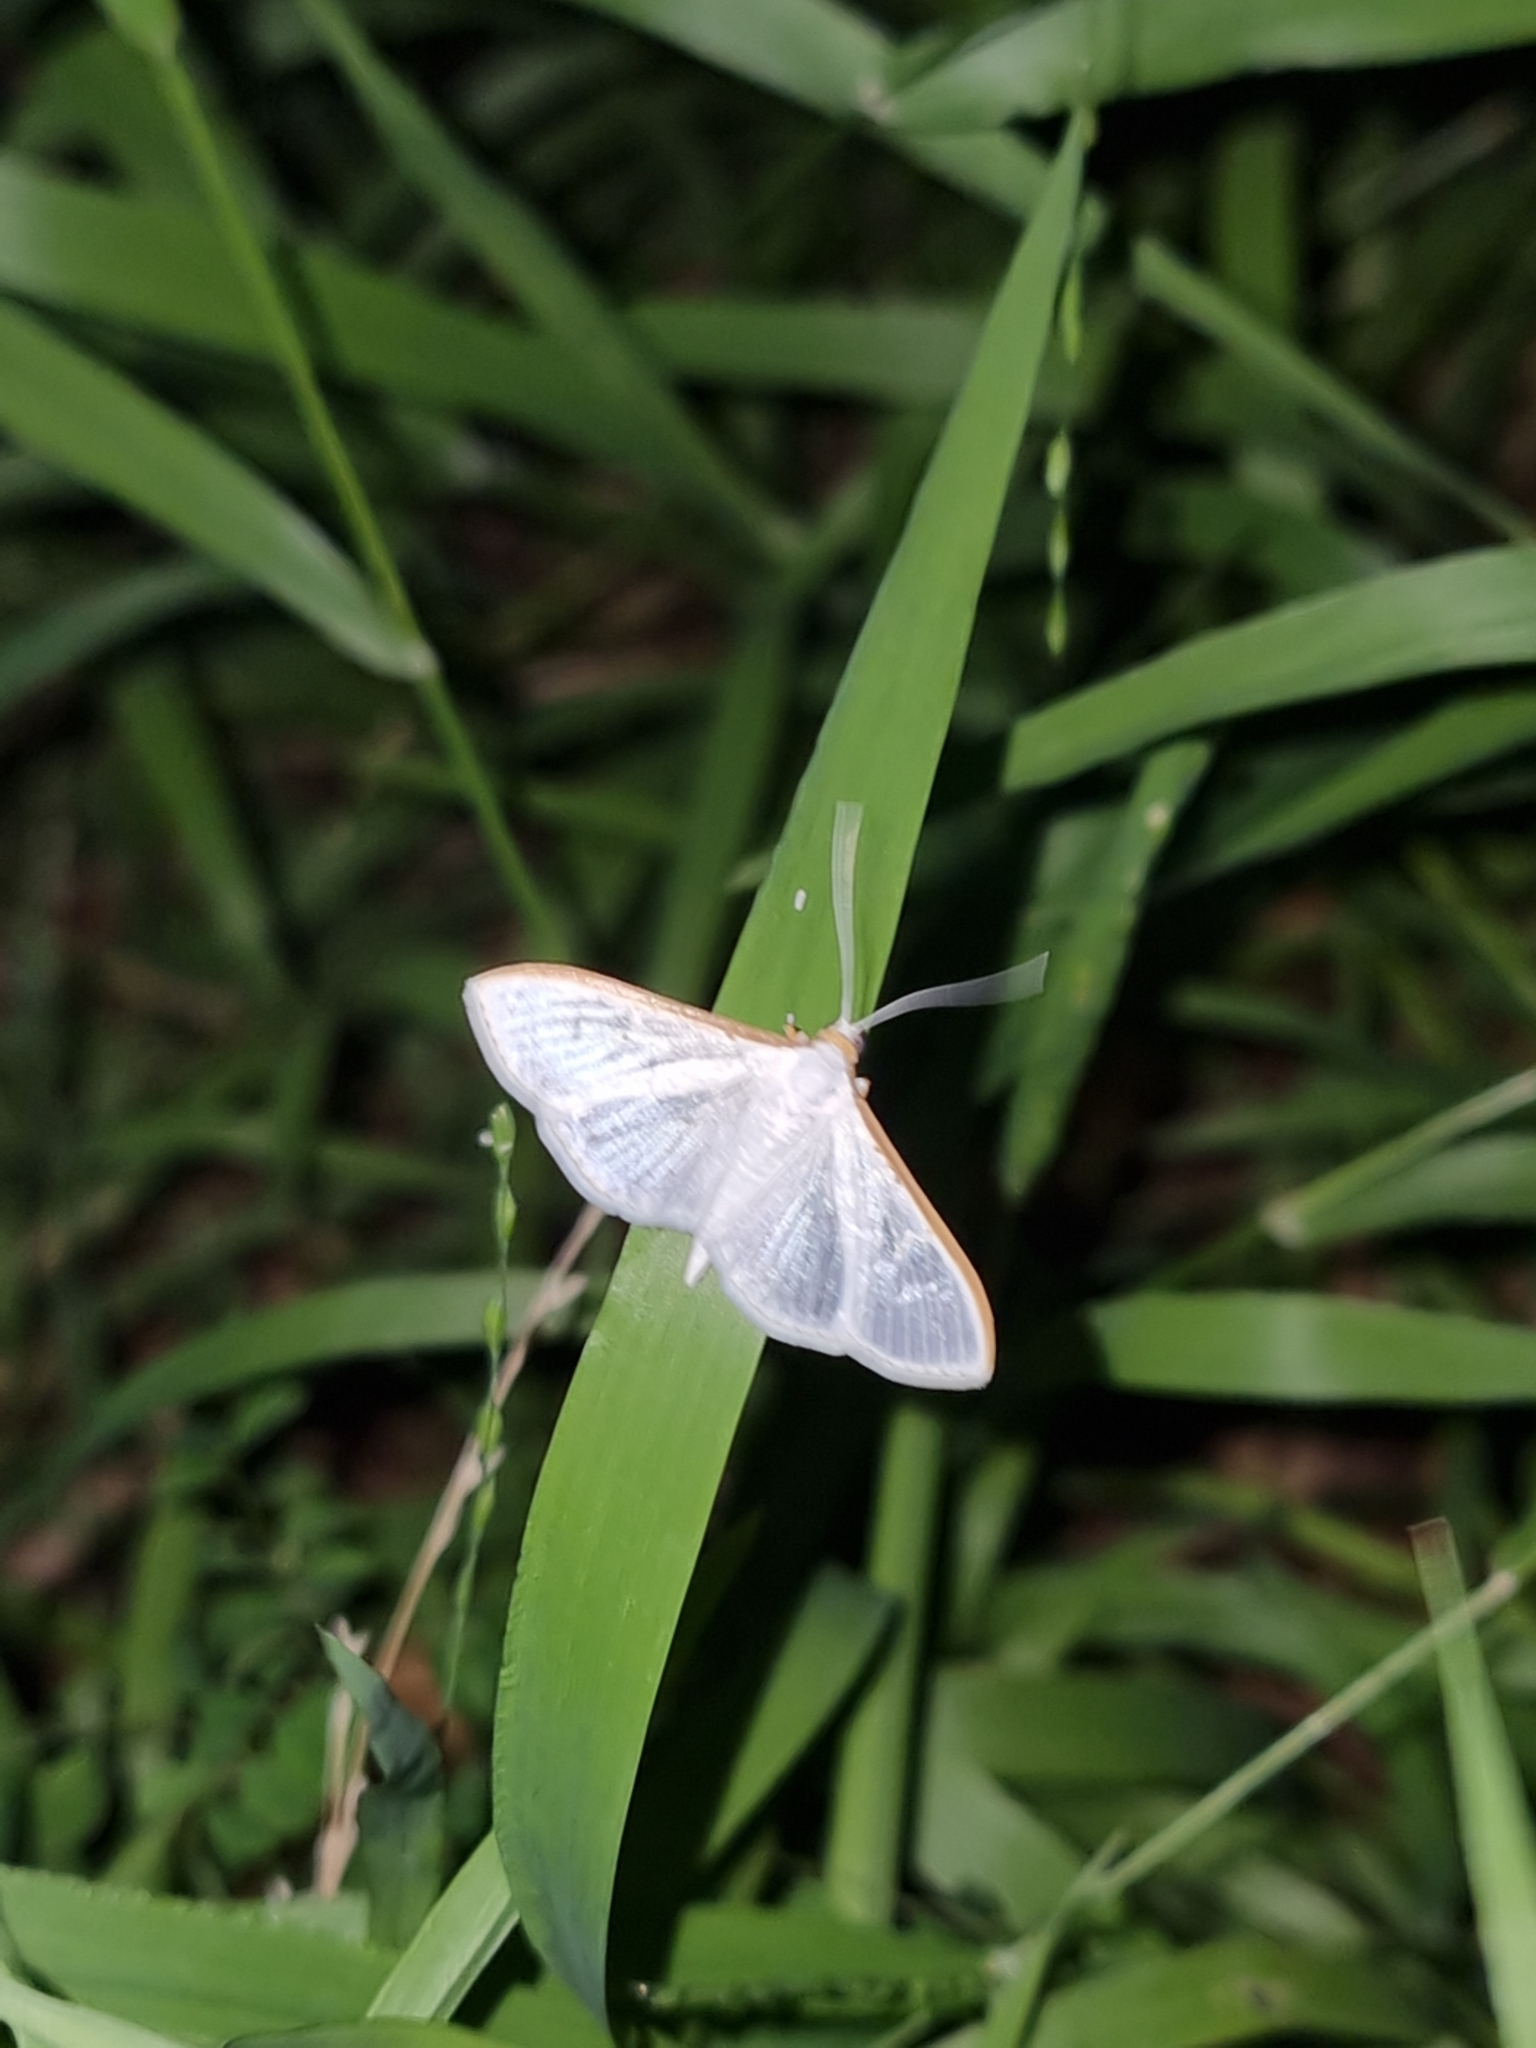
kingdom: Animalia
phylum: Arthropoda
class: Insecta
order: Lepidoptera
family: Crambidae
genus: Palpita
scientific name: Palpita vitrealis
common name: Olive-tree pearl
